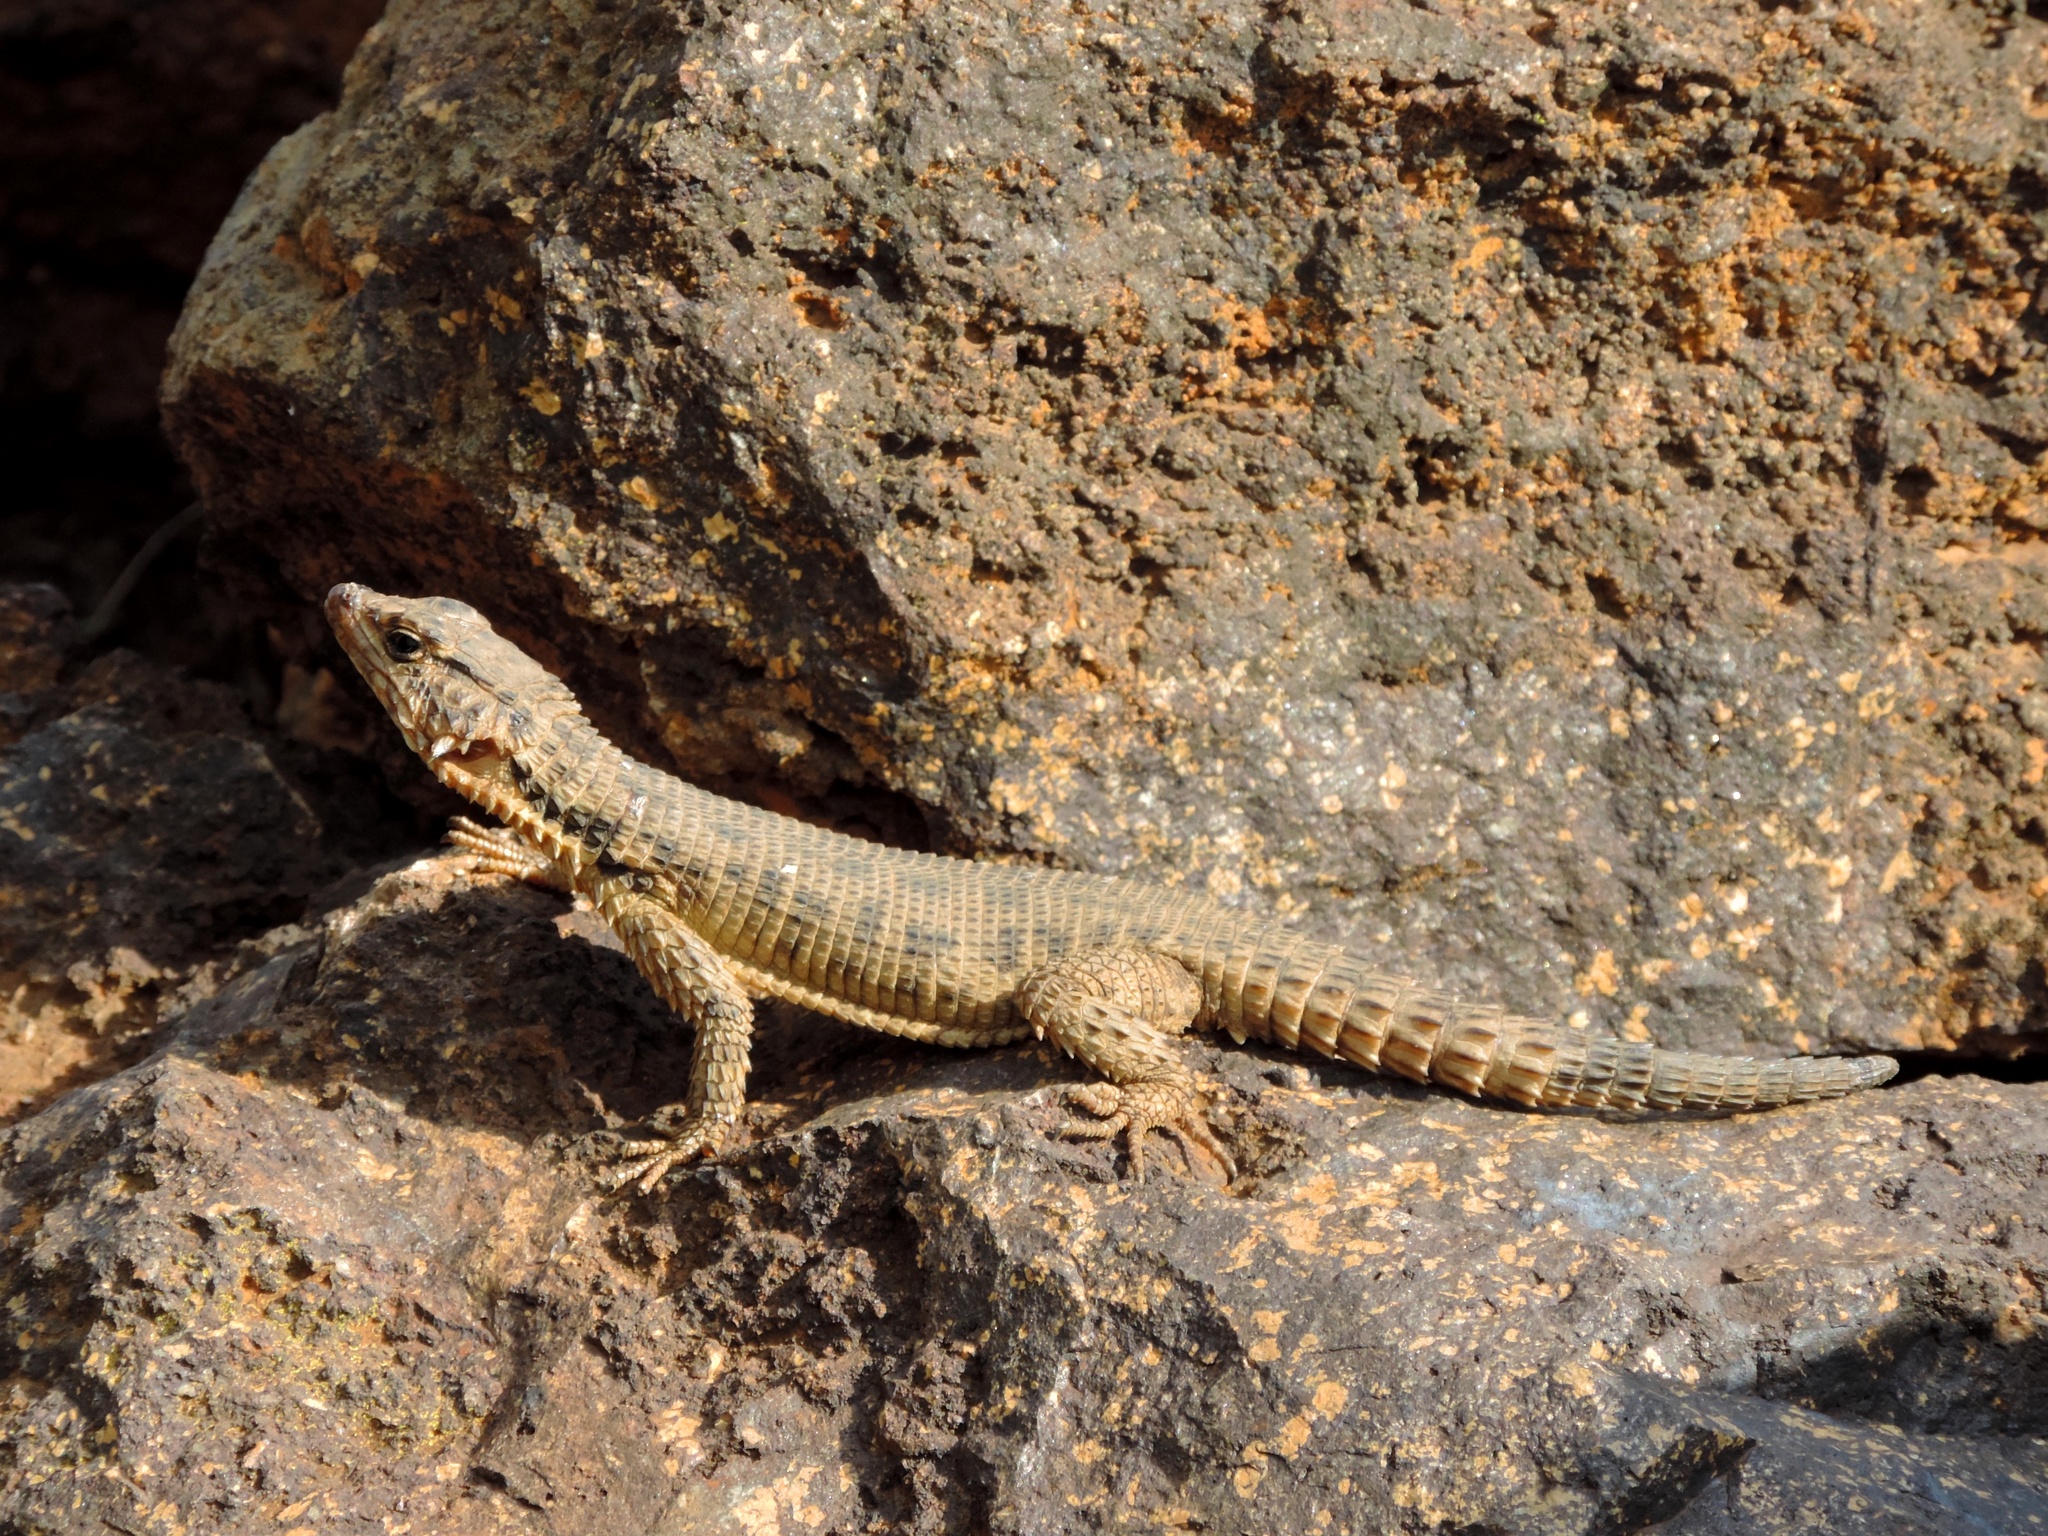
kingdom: Animalia
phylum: Chordata
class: Squamata
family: Cordylidae
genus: Karusasaurus
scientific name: Karusasaurus polyzonus
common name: Karoo girdled lizard
